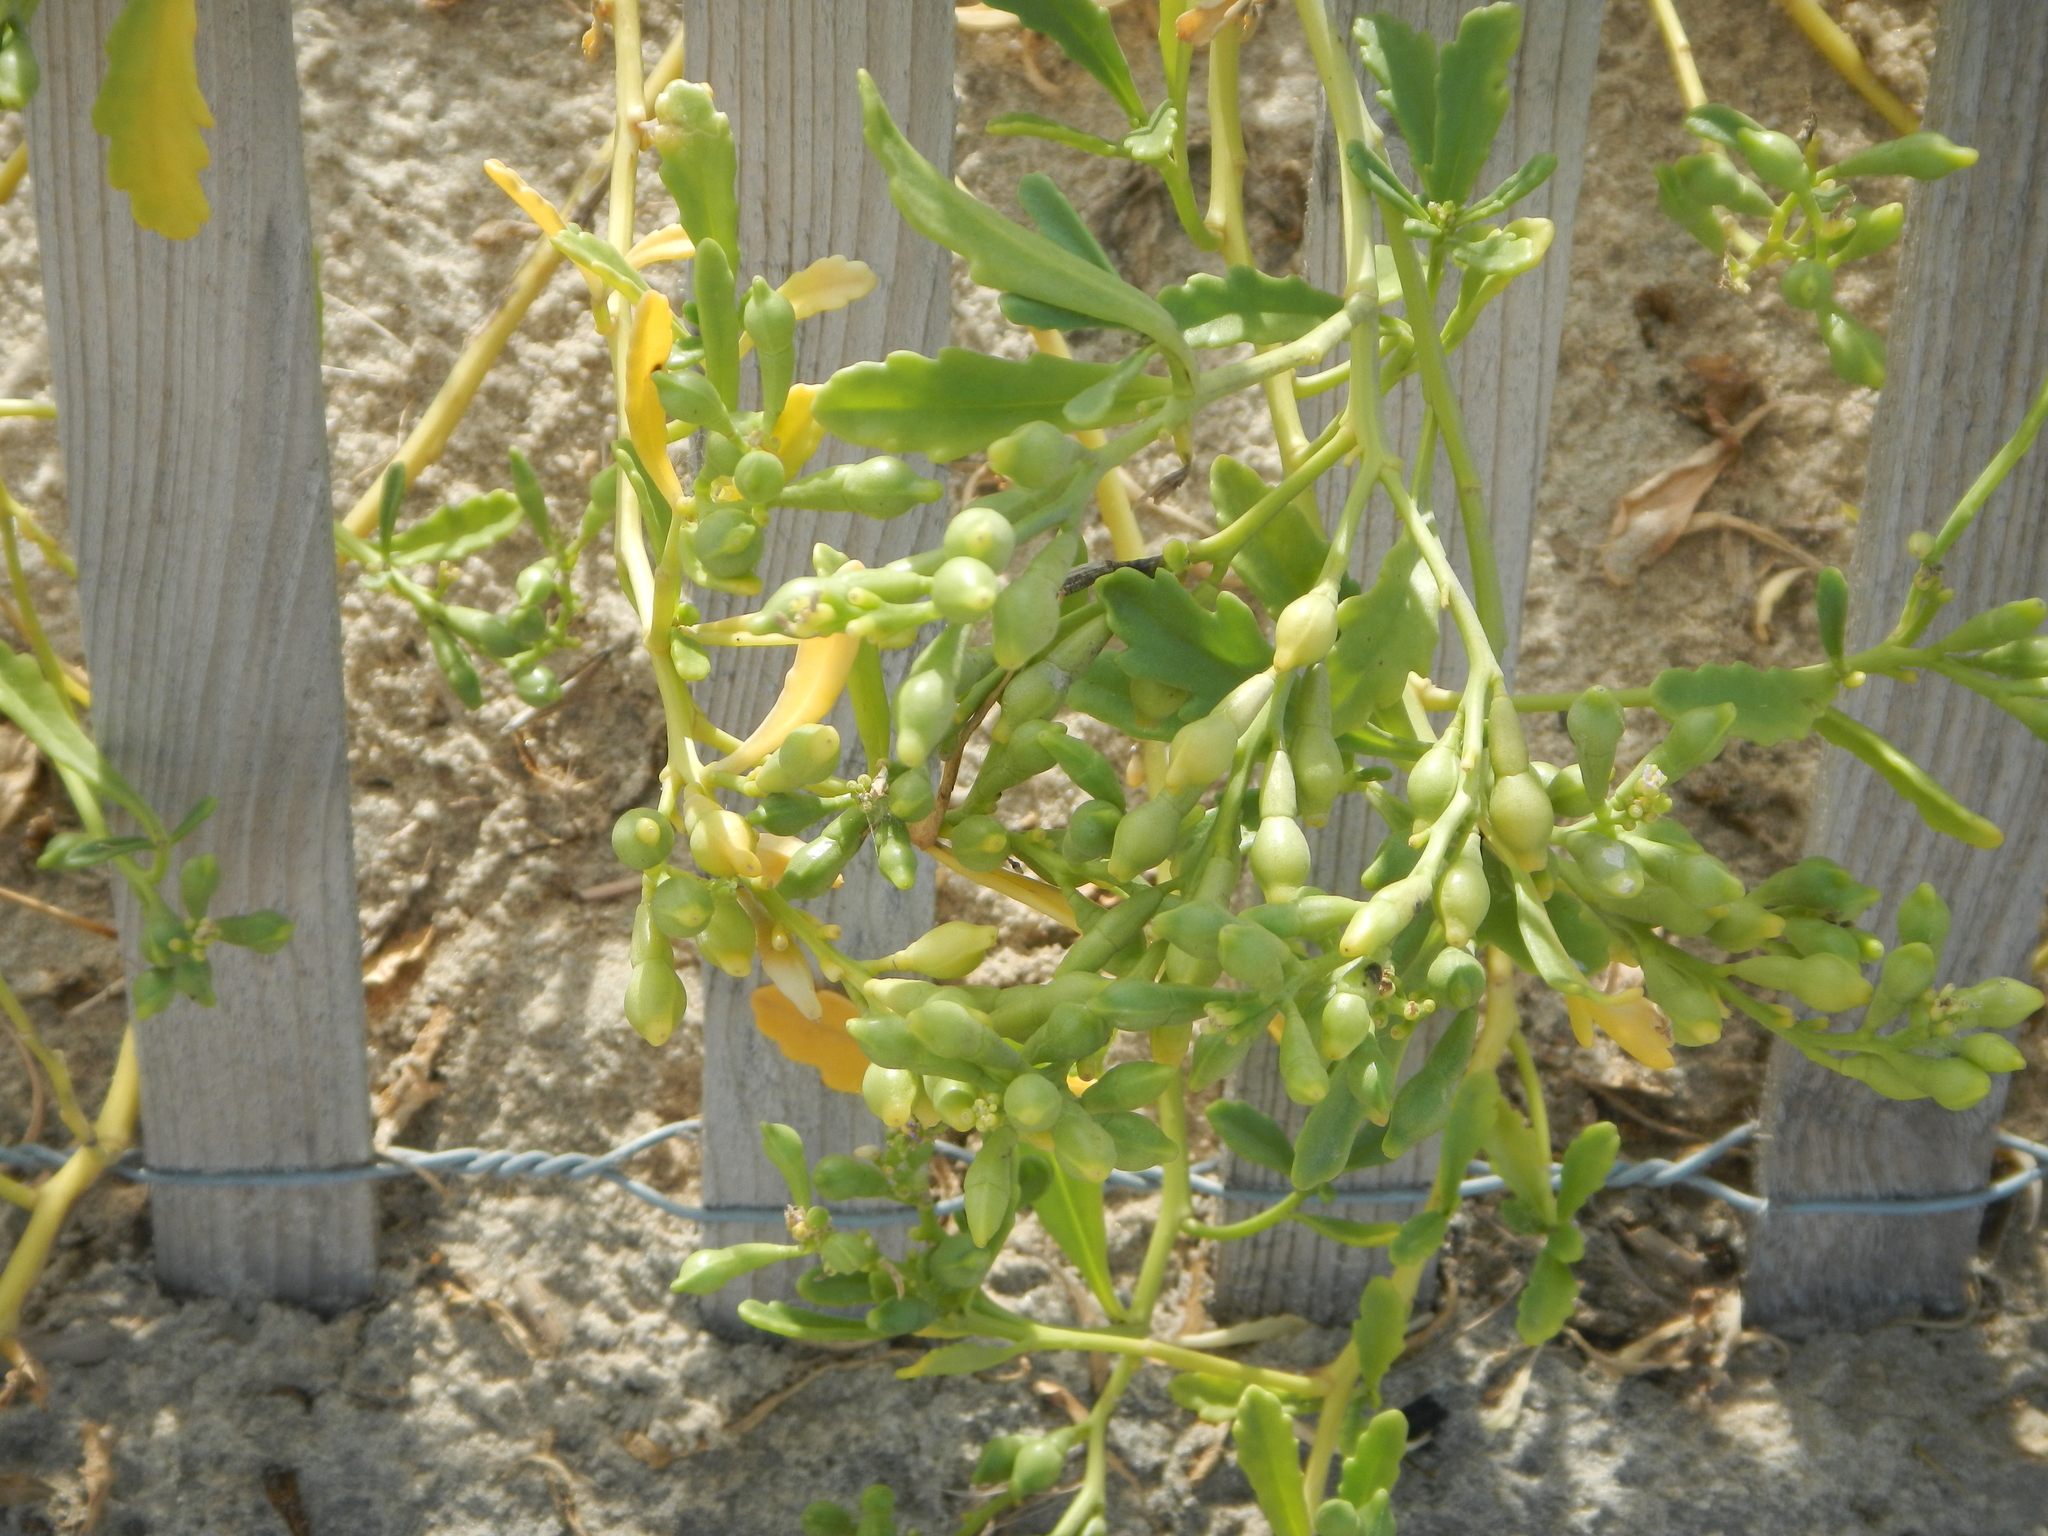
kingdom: Plantae
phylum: Tracheophyta
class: Magnoliopsida
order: Brassicales
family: Brassicaceae
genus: Cakile
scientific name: Cakile edentula
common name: American sea rocket
